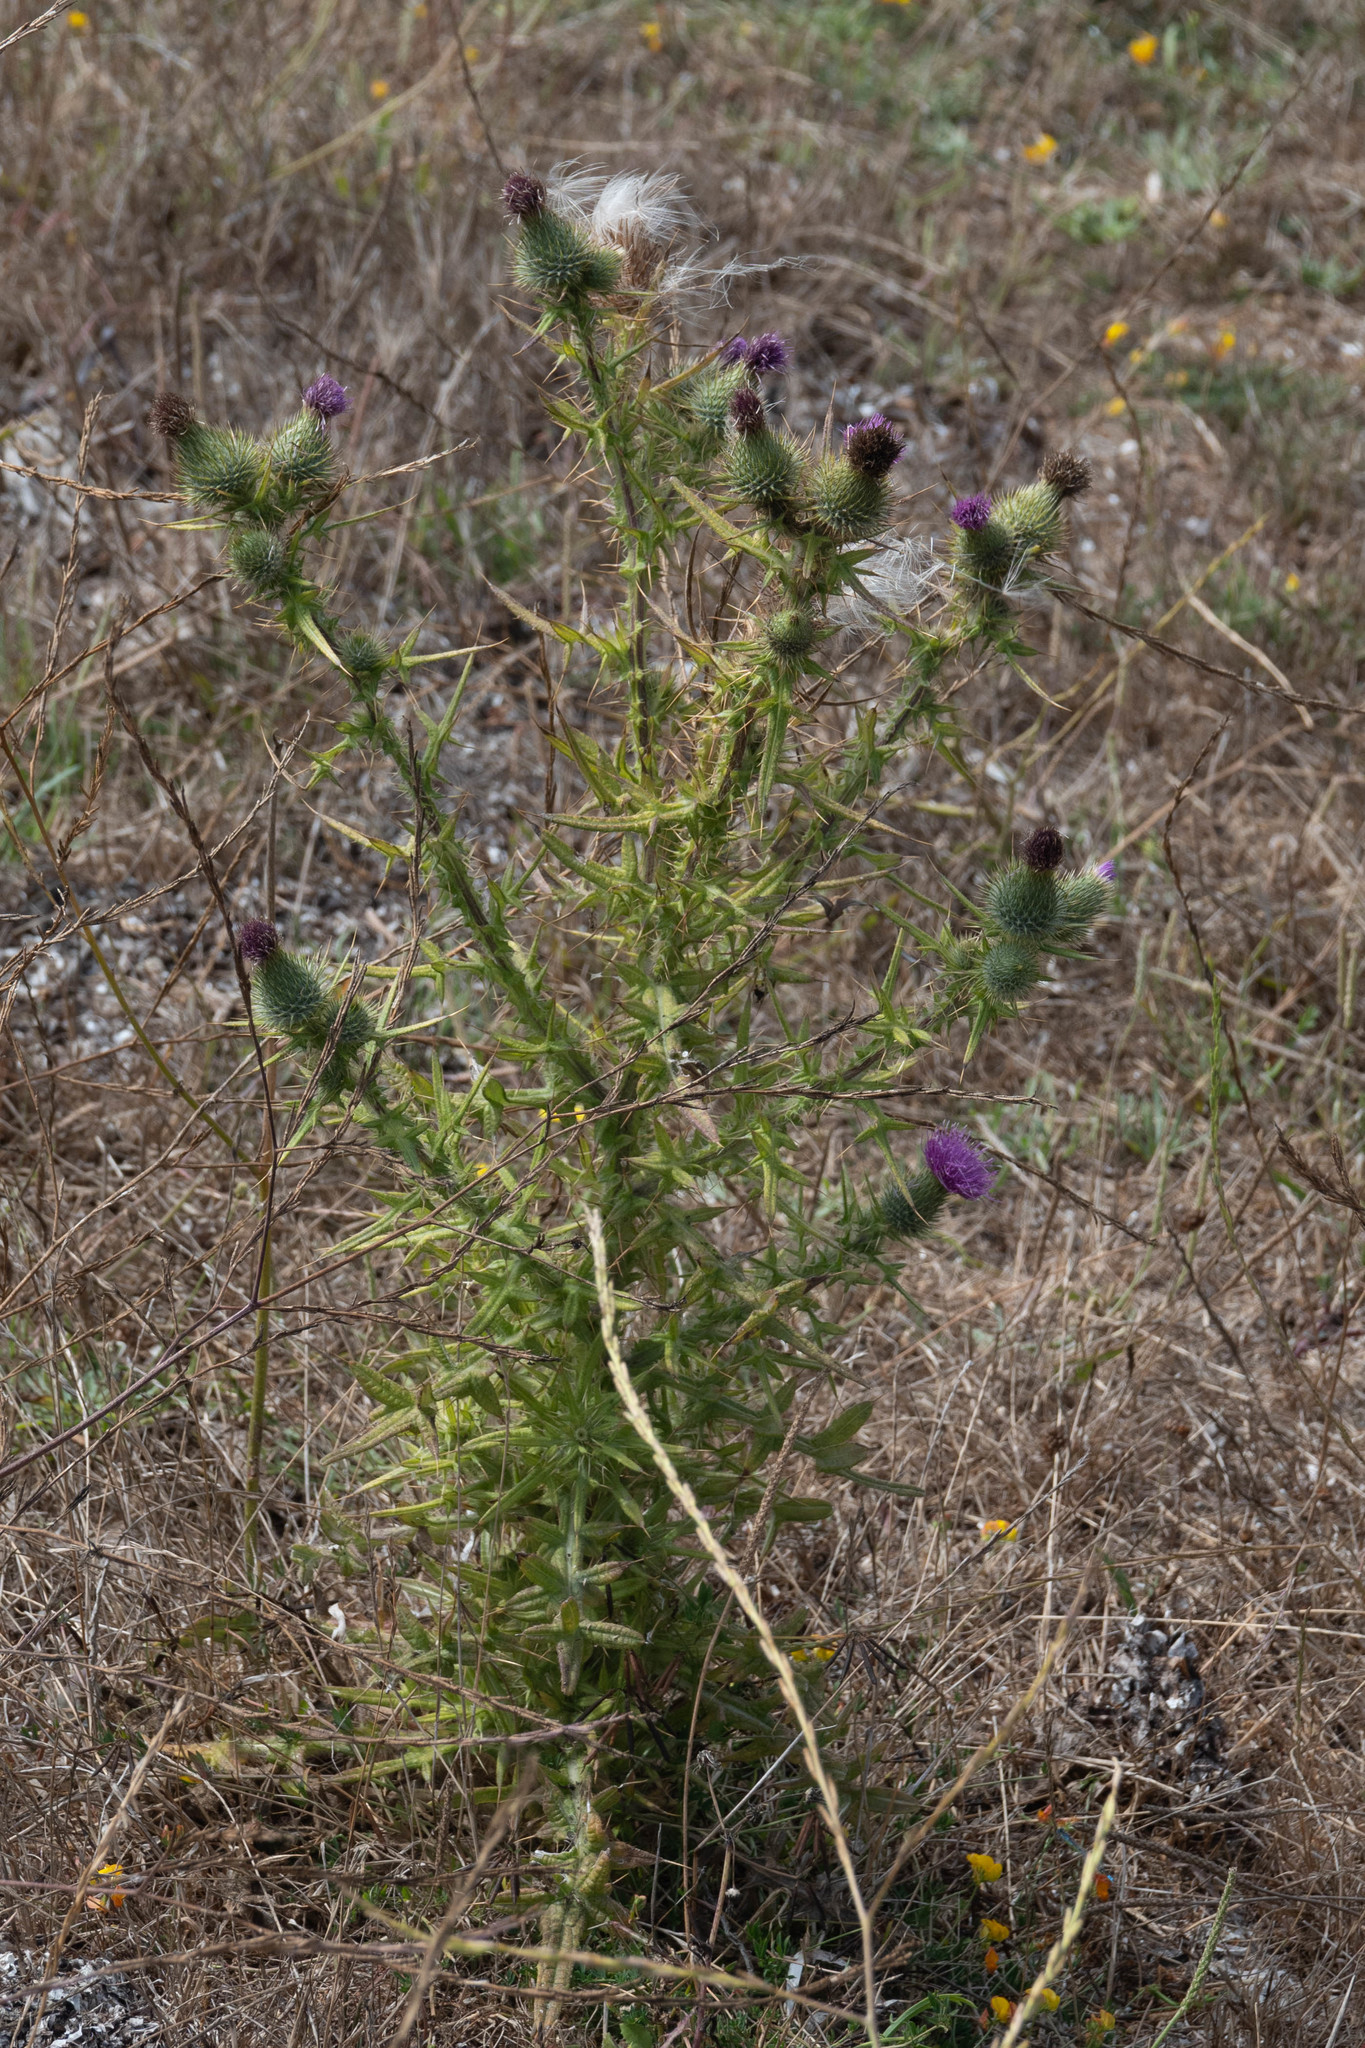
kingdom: Plantae
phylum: Tracheophyta
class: Magnoliopsida
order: Asterales
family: Asteraceae
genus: Cirsium
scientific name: Cirsium vulgare
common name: Bull thistle
